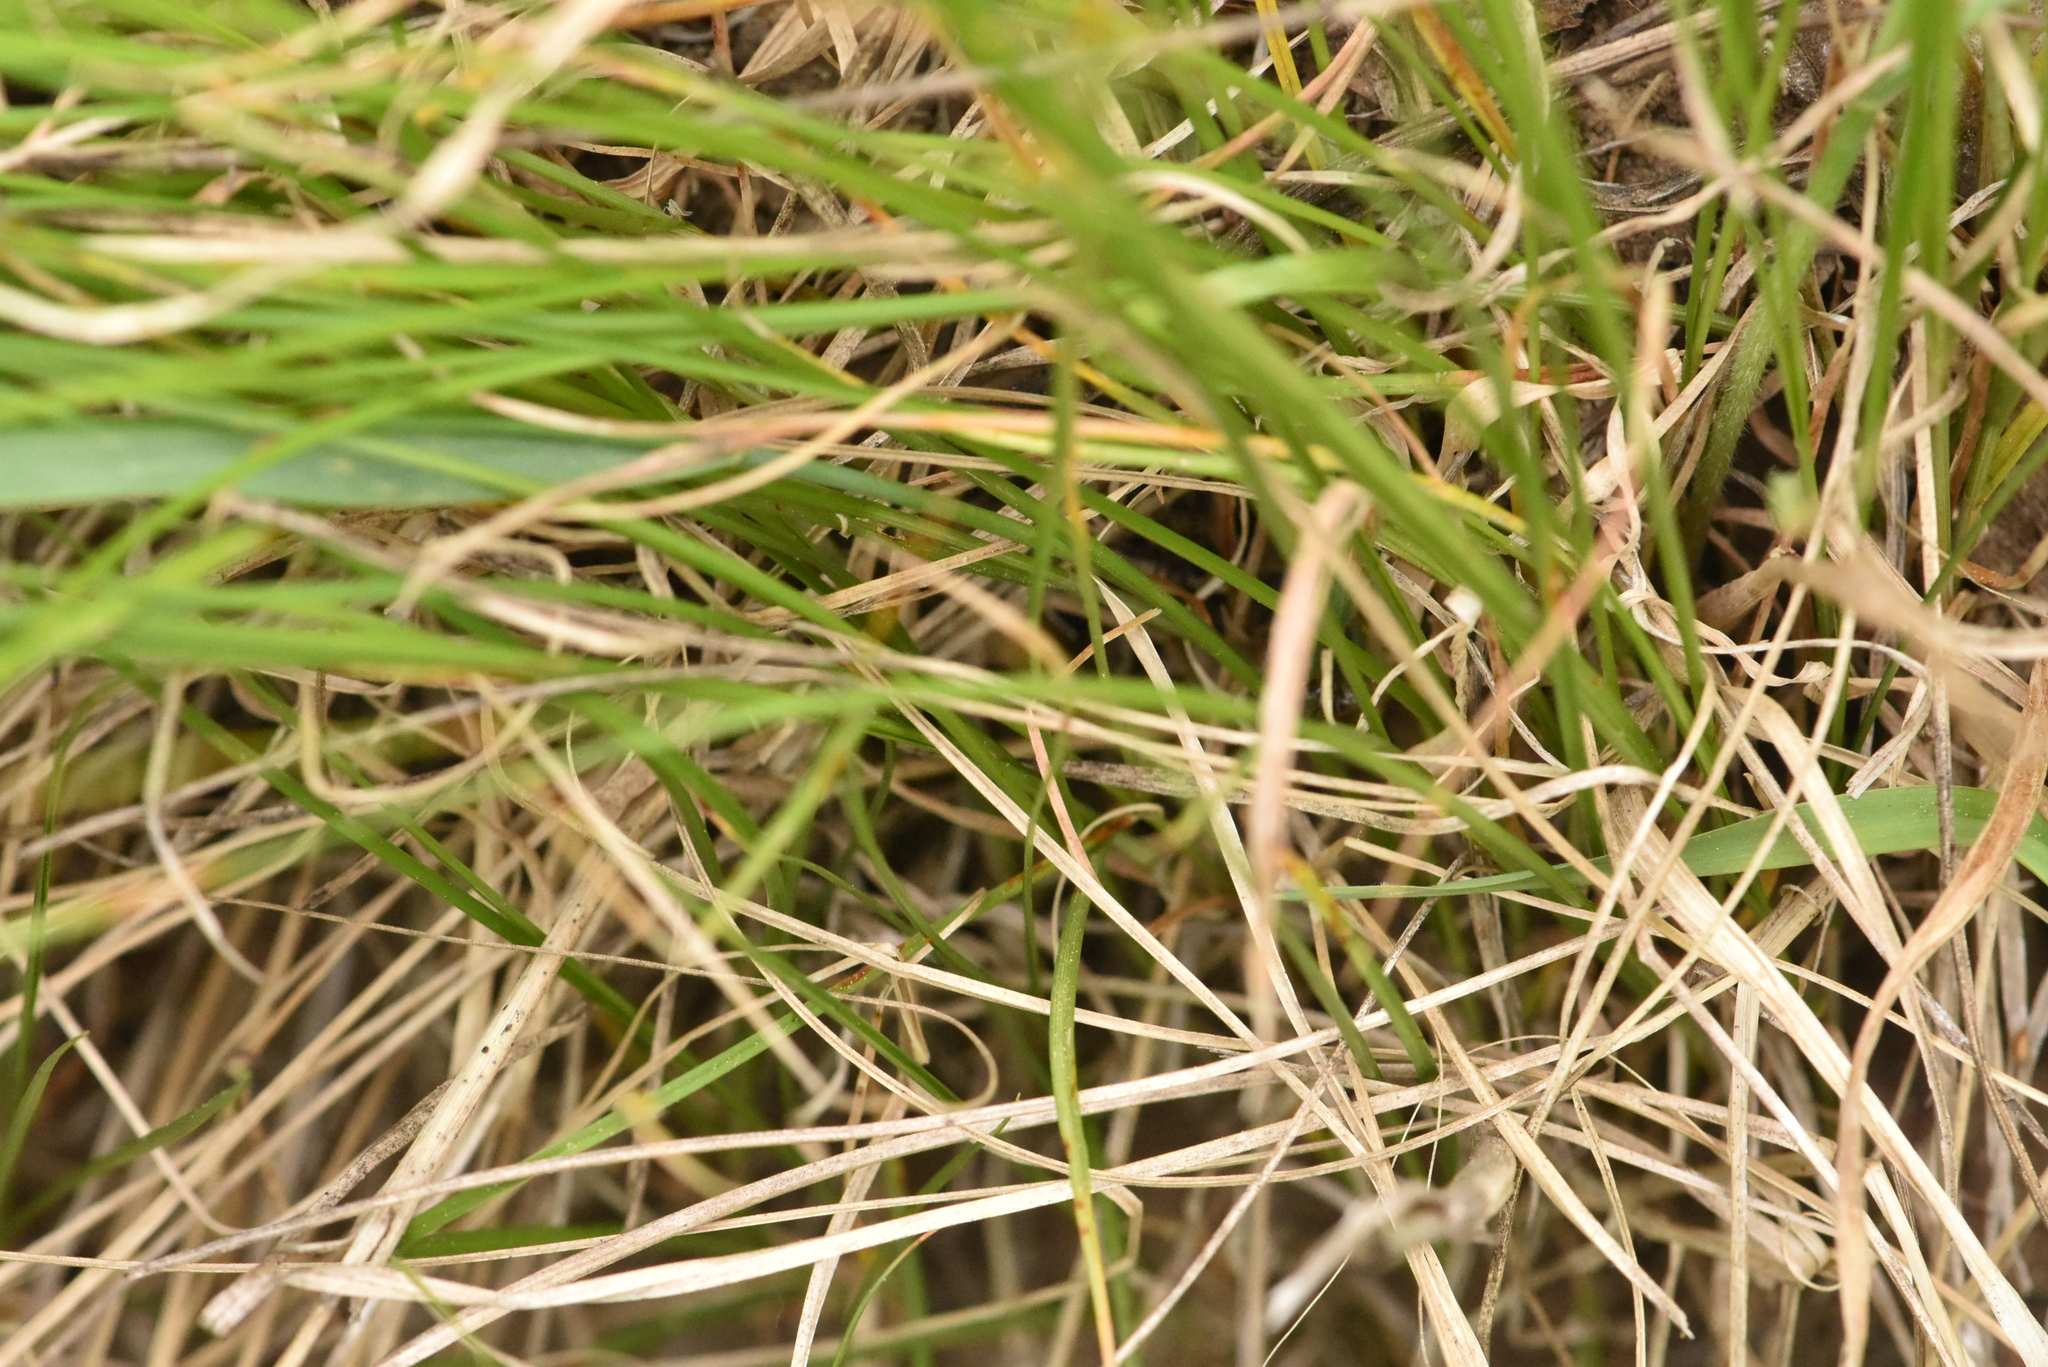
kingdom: Plantae
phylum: Tracheophyta
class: Liliopsida
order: Poales
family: Cyperaceae
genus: Carex
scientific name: Carex praecox
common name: Early sedge
